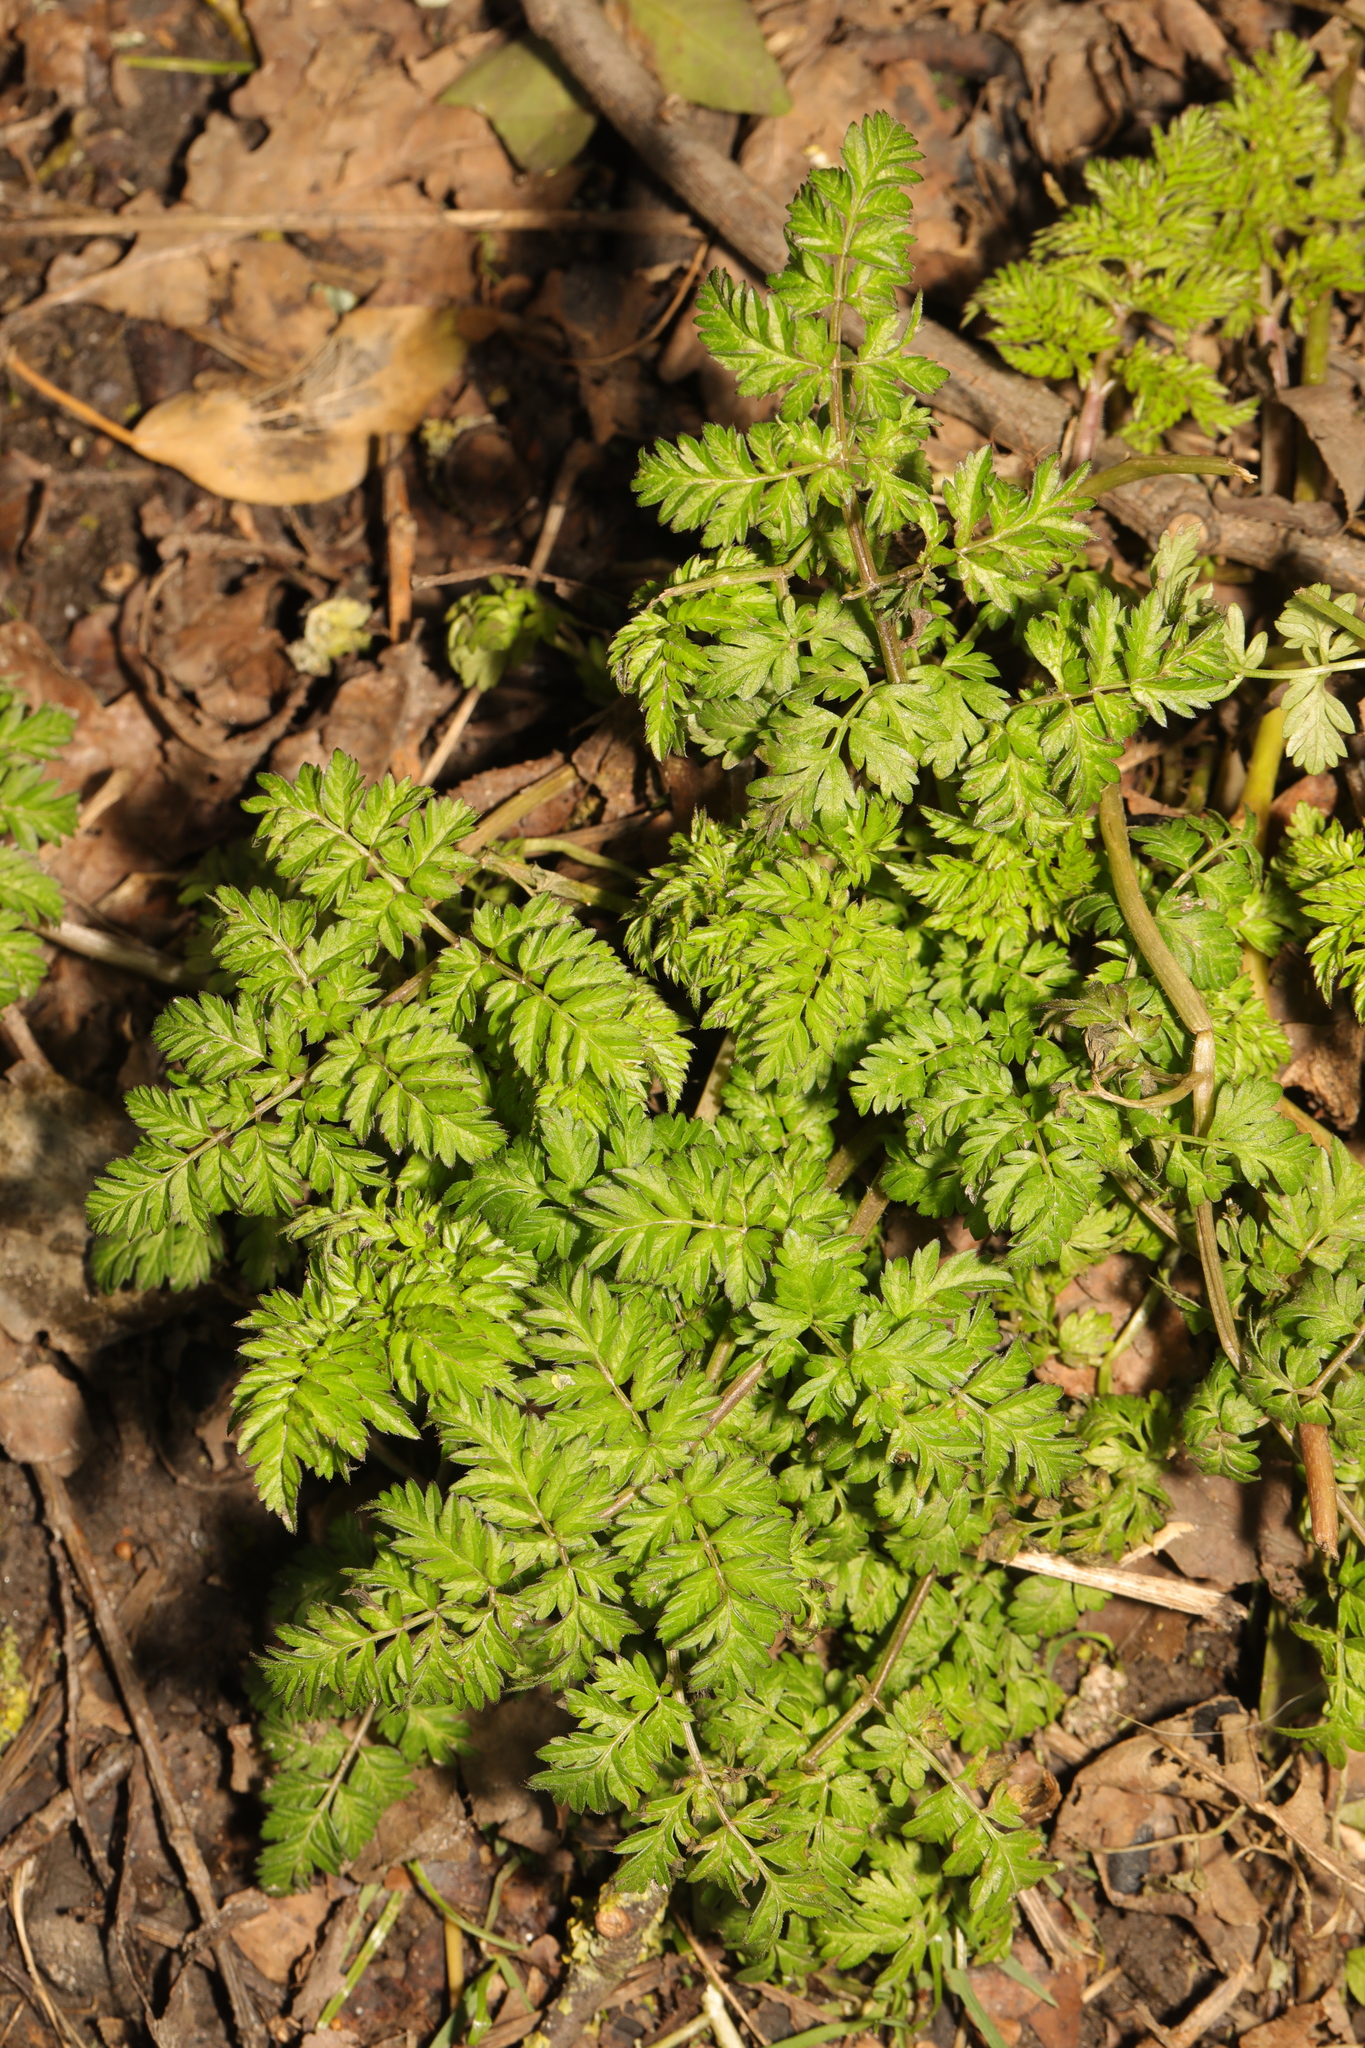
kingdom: Plantae
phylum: Tracheophyta
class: Magnoliopsida
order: Apiales
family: Apiaceae
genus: Anthriscus
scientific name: Anthriscus sylvestris
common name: Cow parsley
